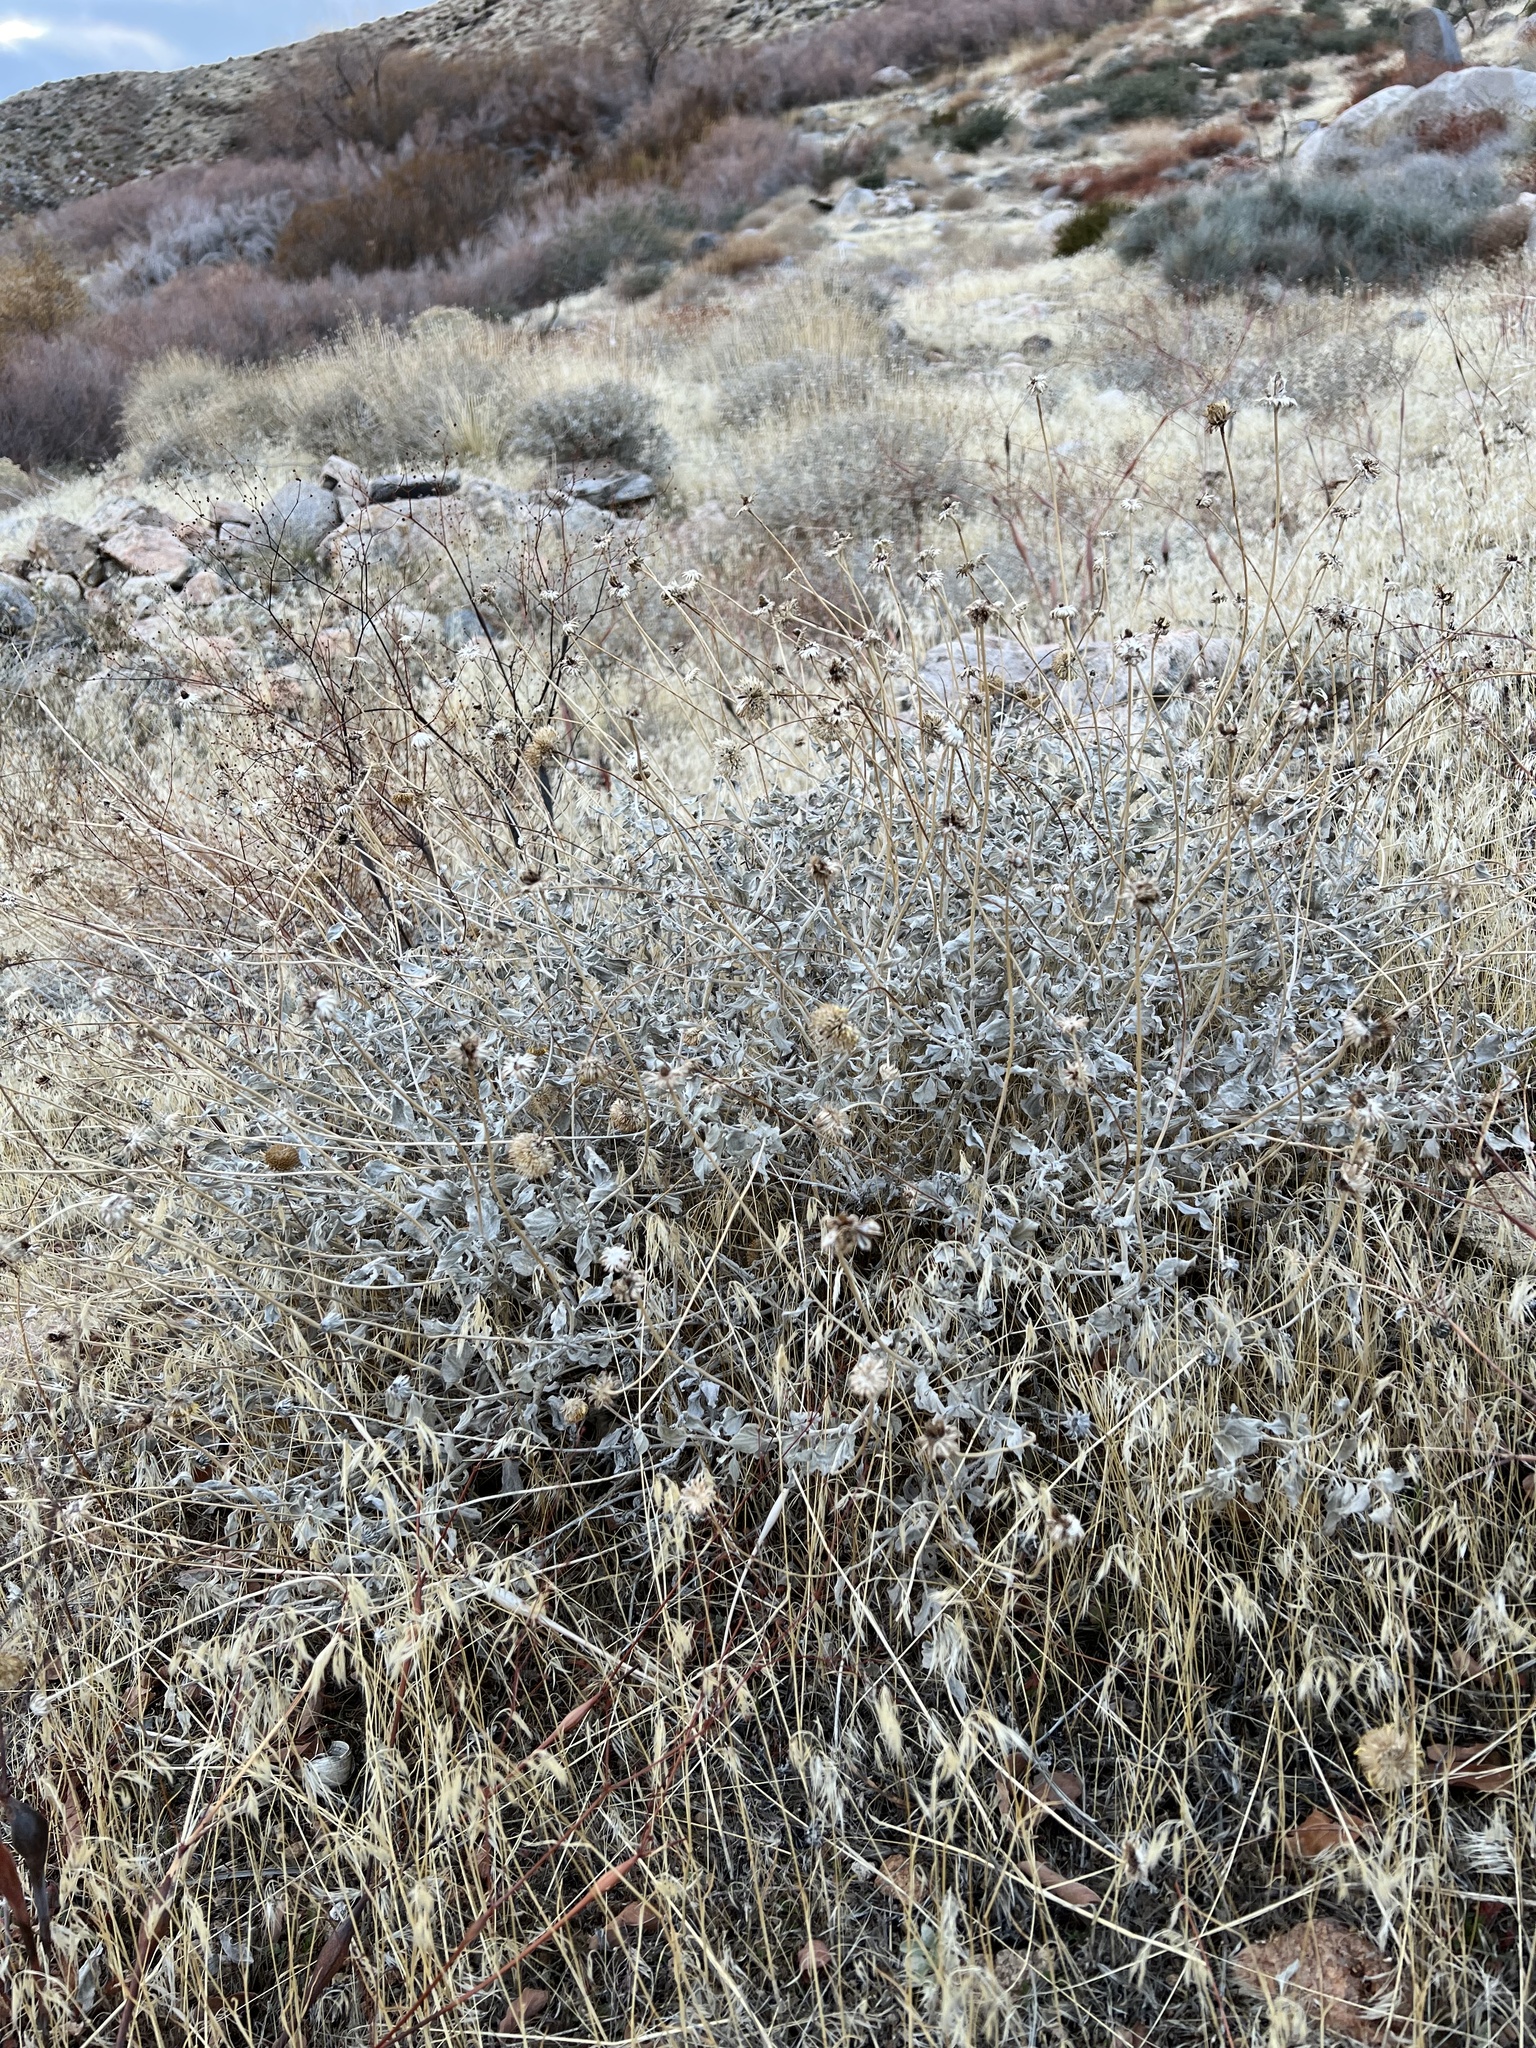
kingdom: Plantae
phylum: Tracheophyta
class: Magnoliopsida
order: Asterales
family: Asteraceae
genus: Encelia
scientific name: Encelia actoni
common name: Acton encelia
